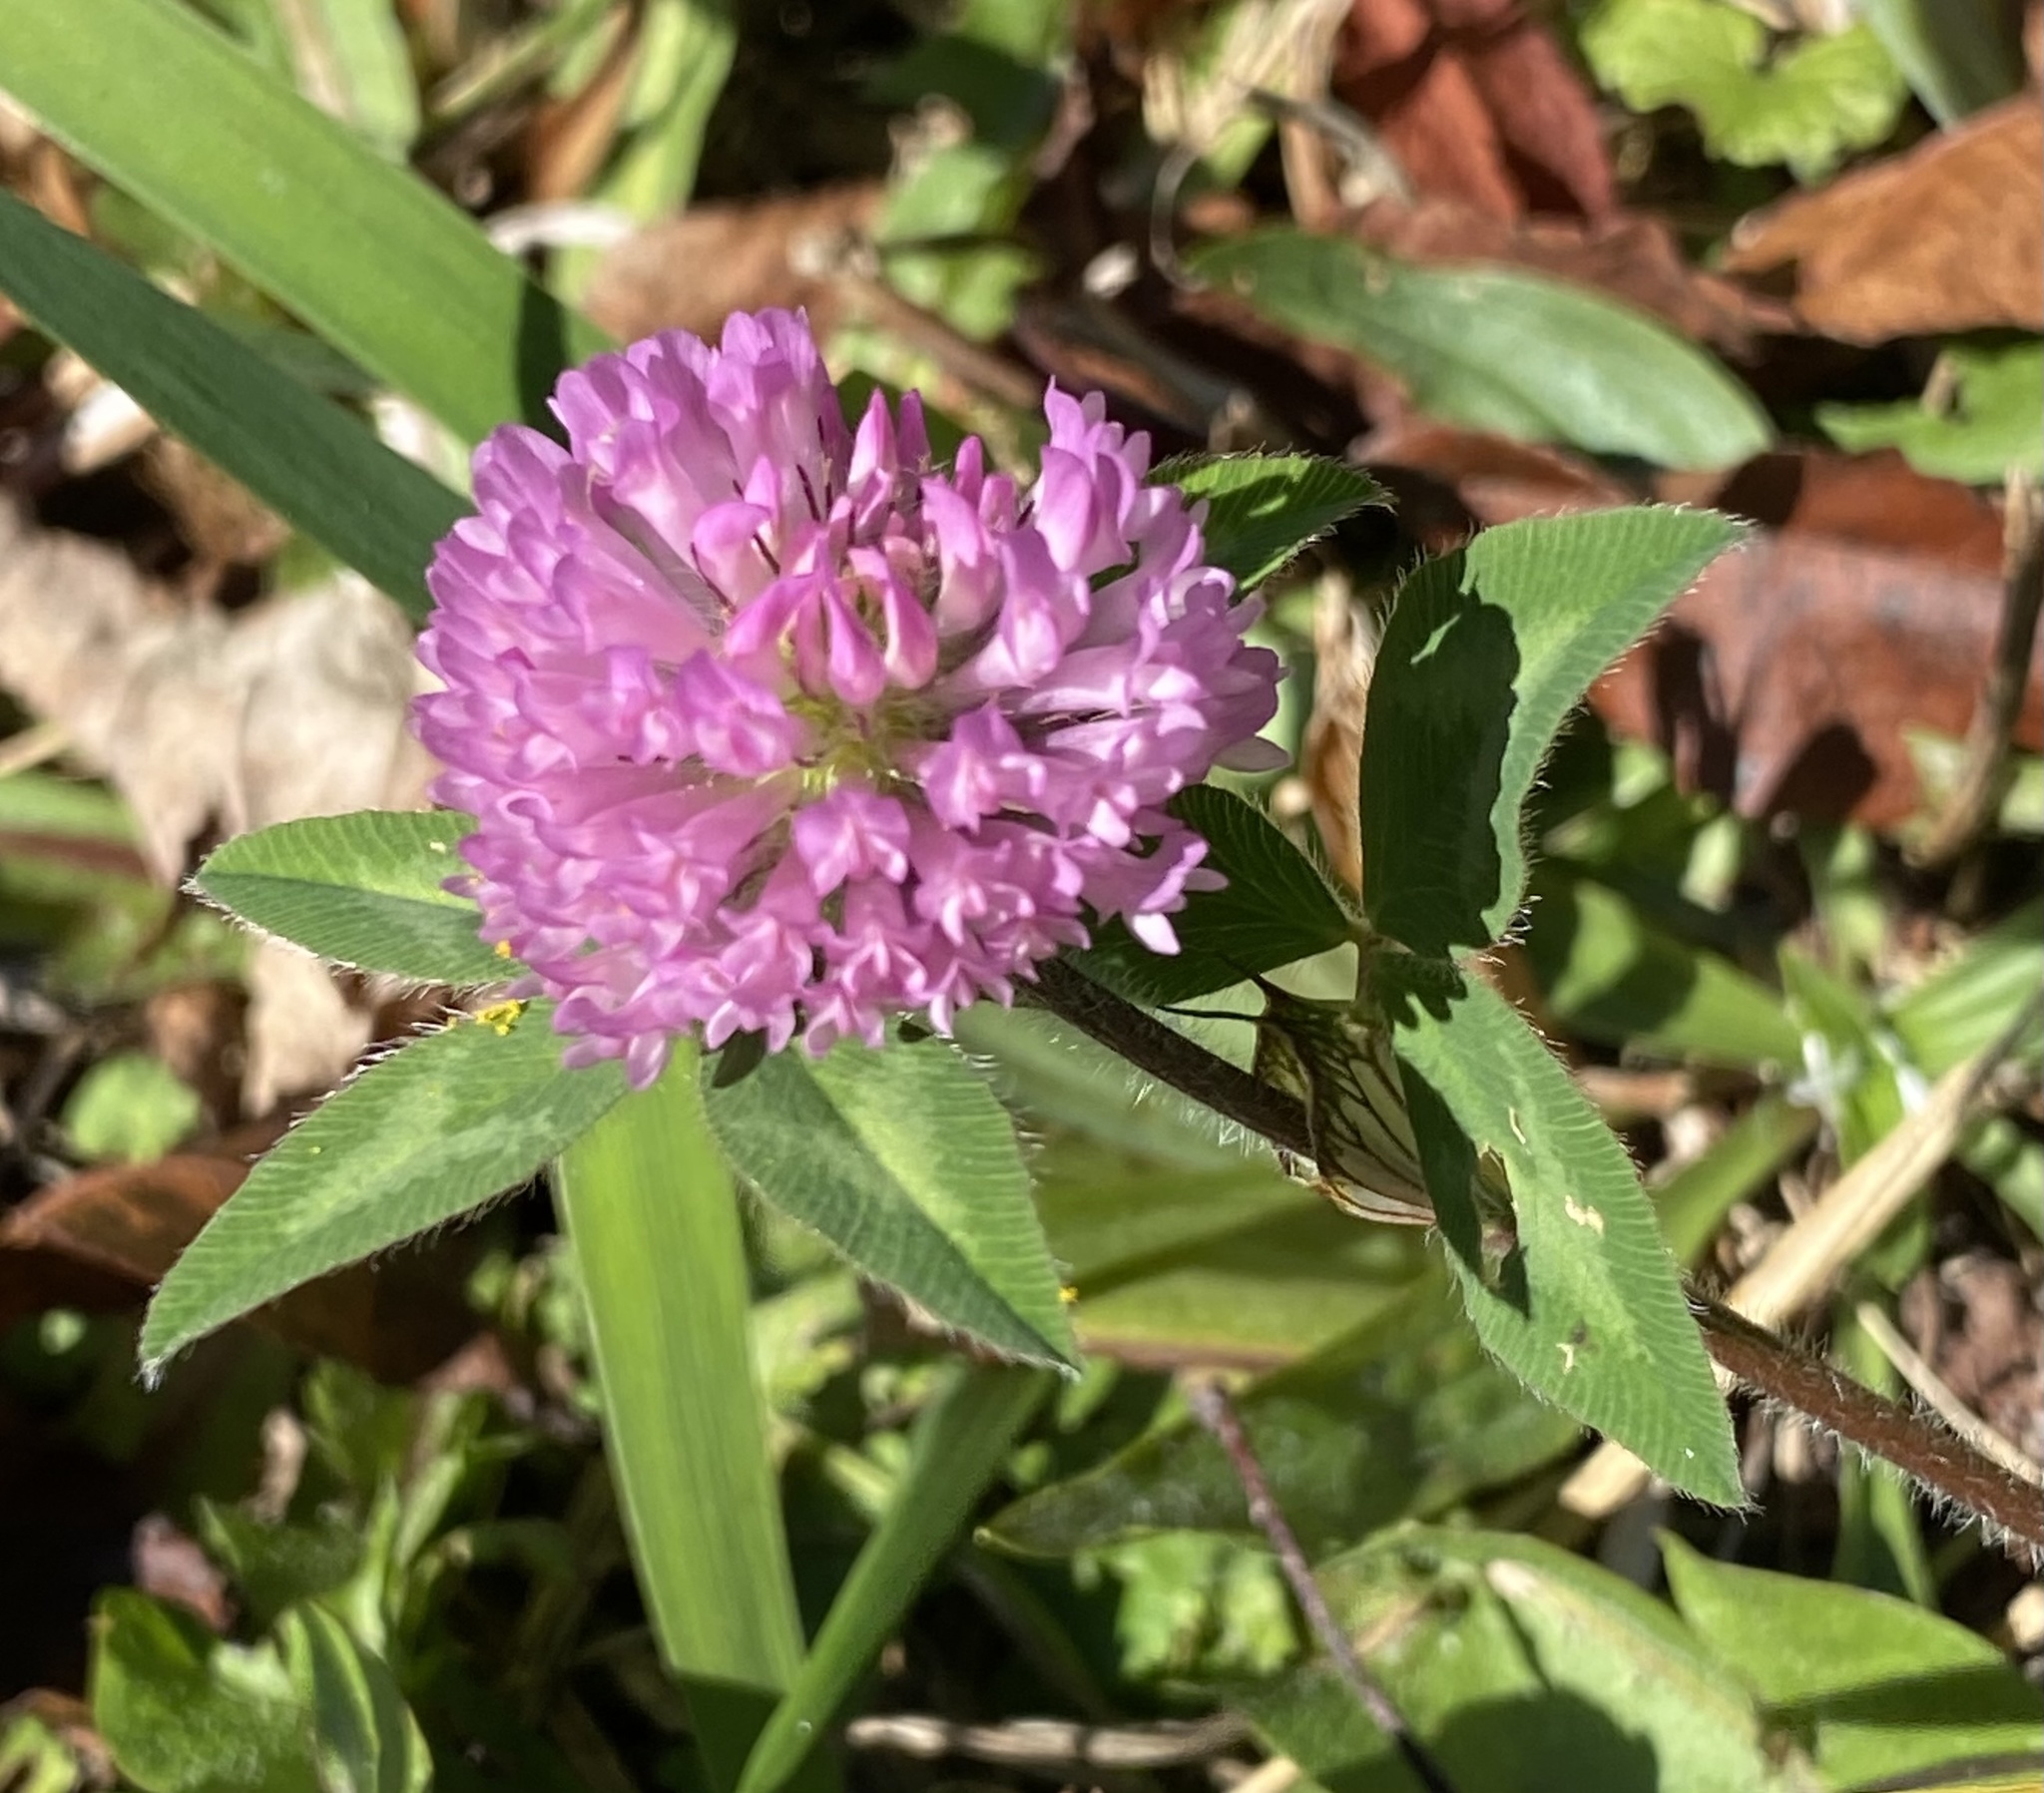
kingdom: Plantae
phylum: Tracheophyta
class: Magnoliopsida
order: Fabales
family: Fabaceae
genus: Trifolium
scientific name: Trifolium pratense
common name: Red clover
